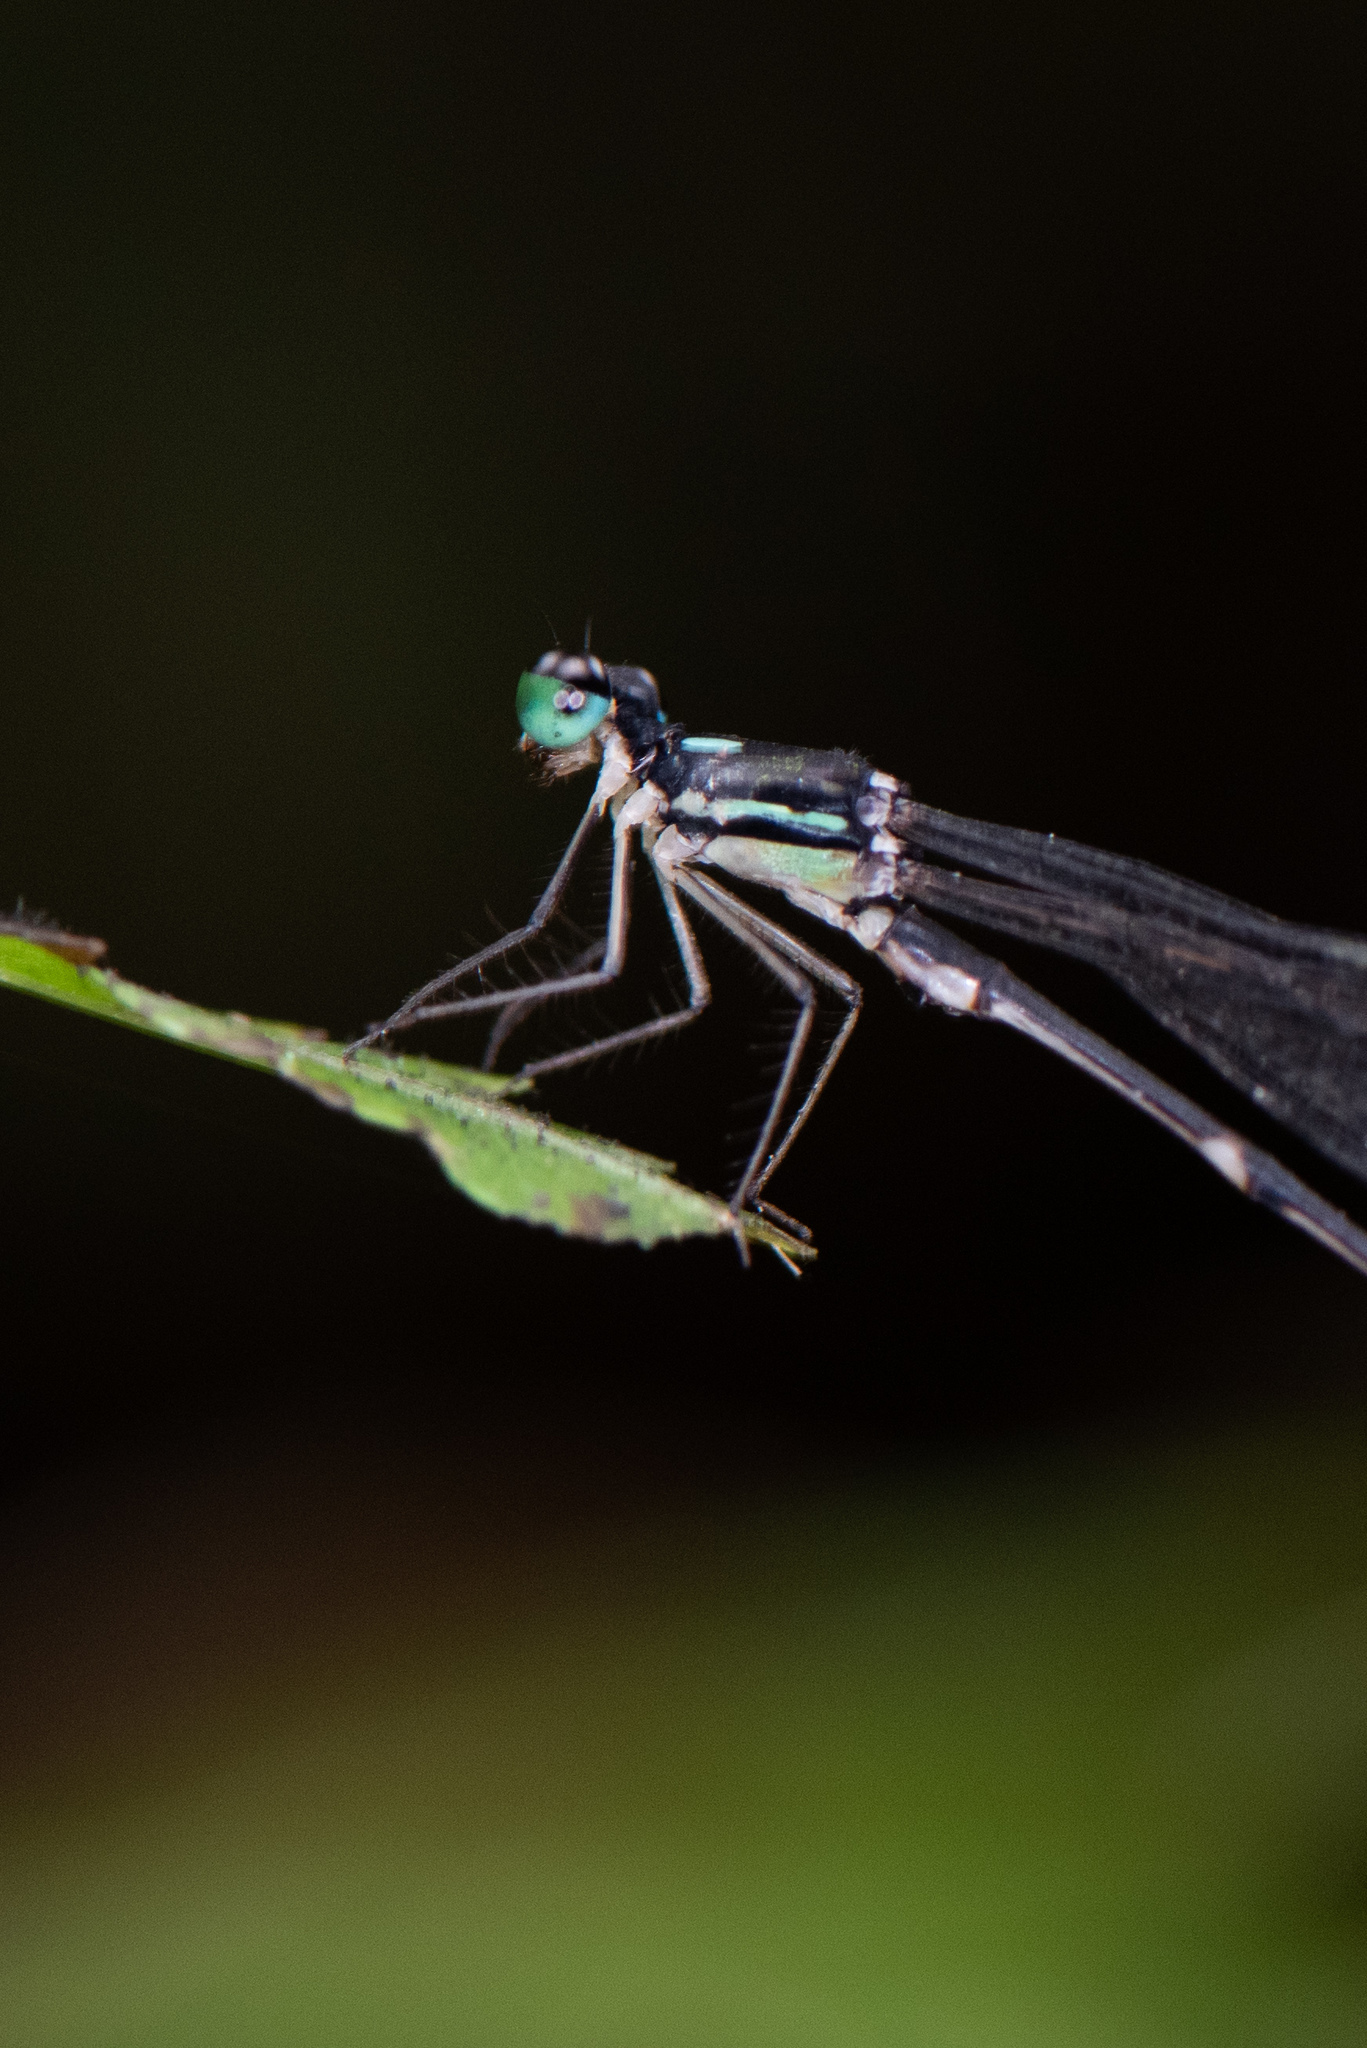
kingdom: Animalia
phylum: Arthropoda
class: Insecta
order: Odonata
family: Platycnemididae
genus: Coeliccia
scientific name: Coeliccia flavicauda
